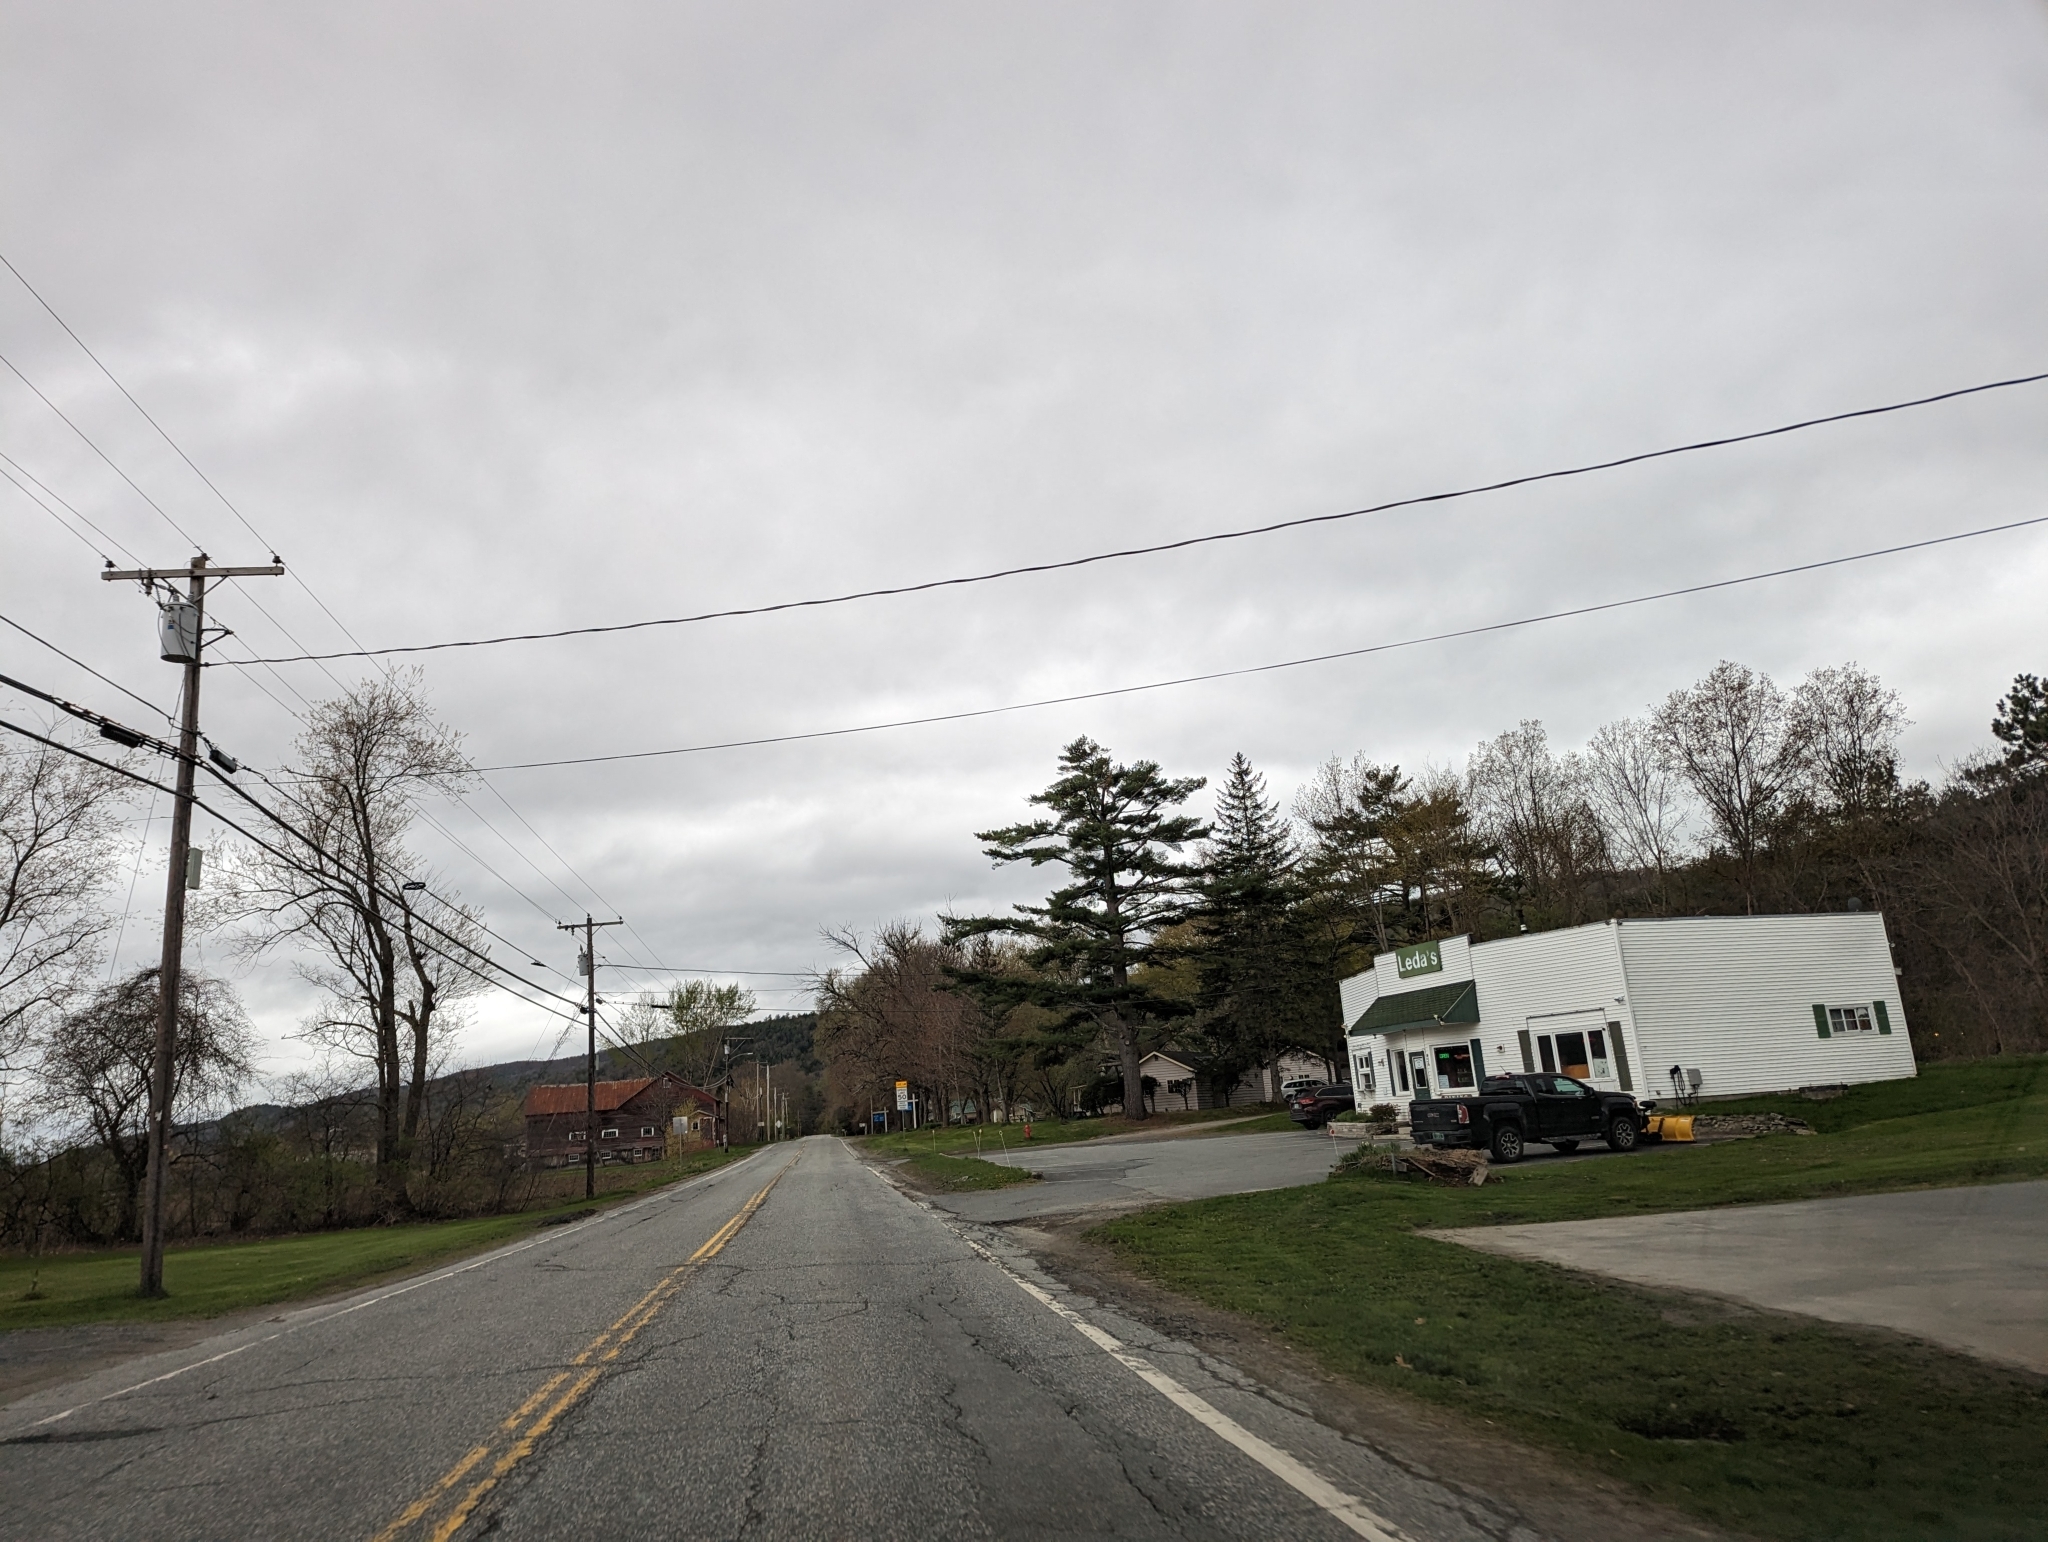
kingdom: Plantae
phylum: Tracheophyta
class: Pinopsida
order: Pinales
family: Pinaceae
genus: Pinus
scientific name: Pinus strobus
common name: Weymouth pine
